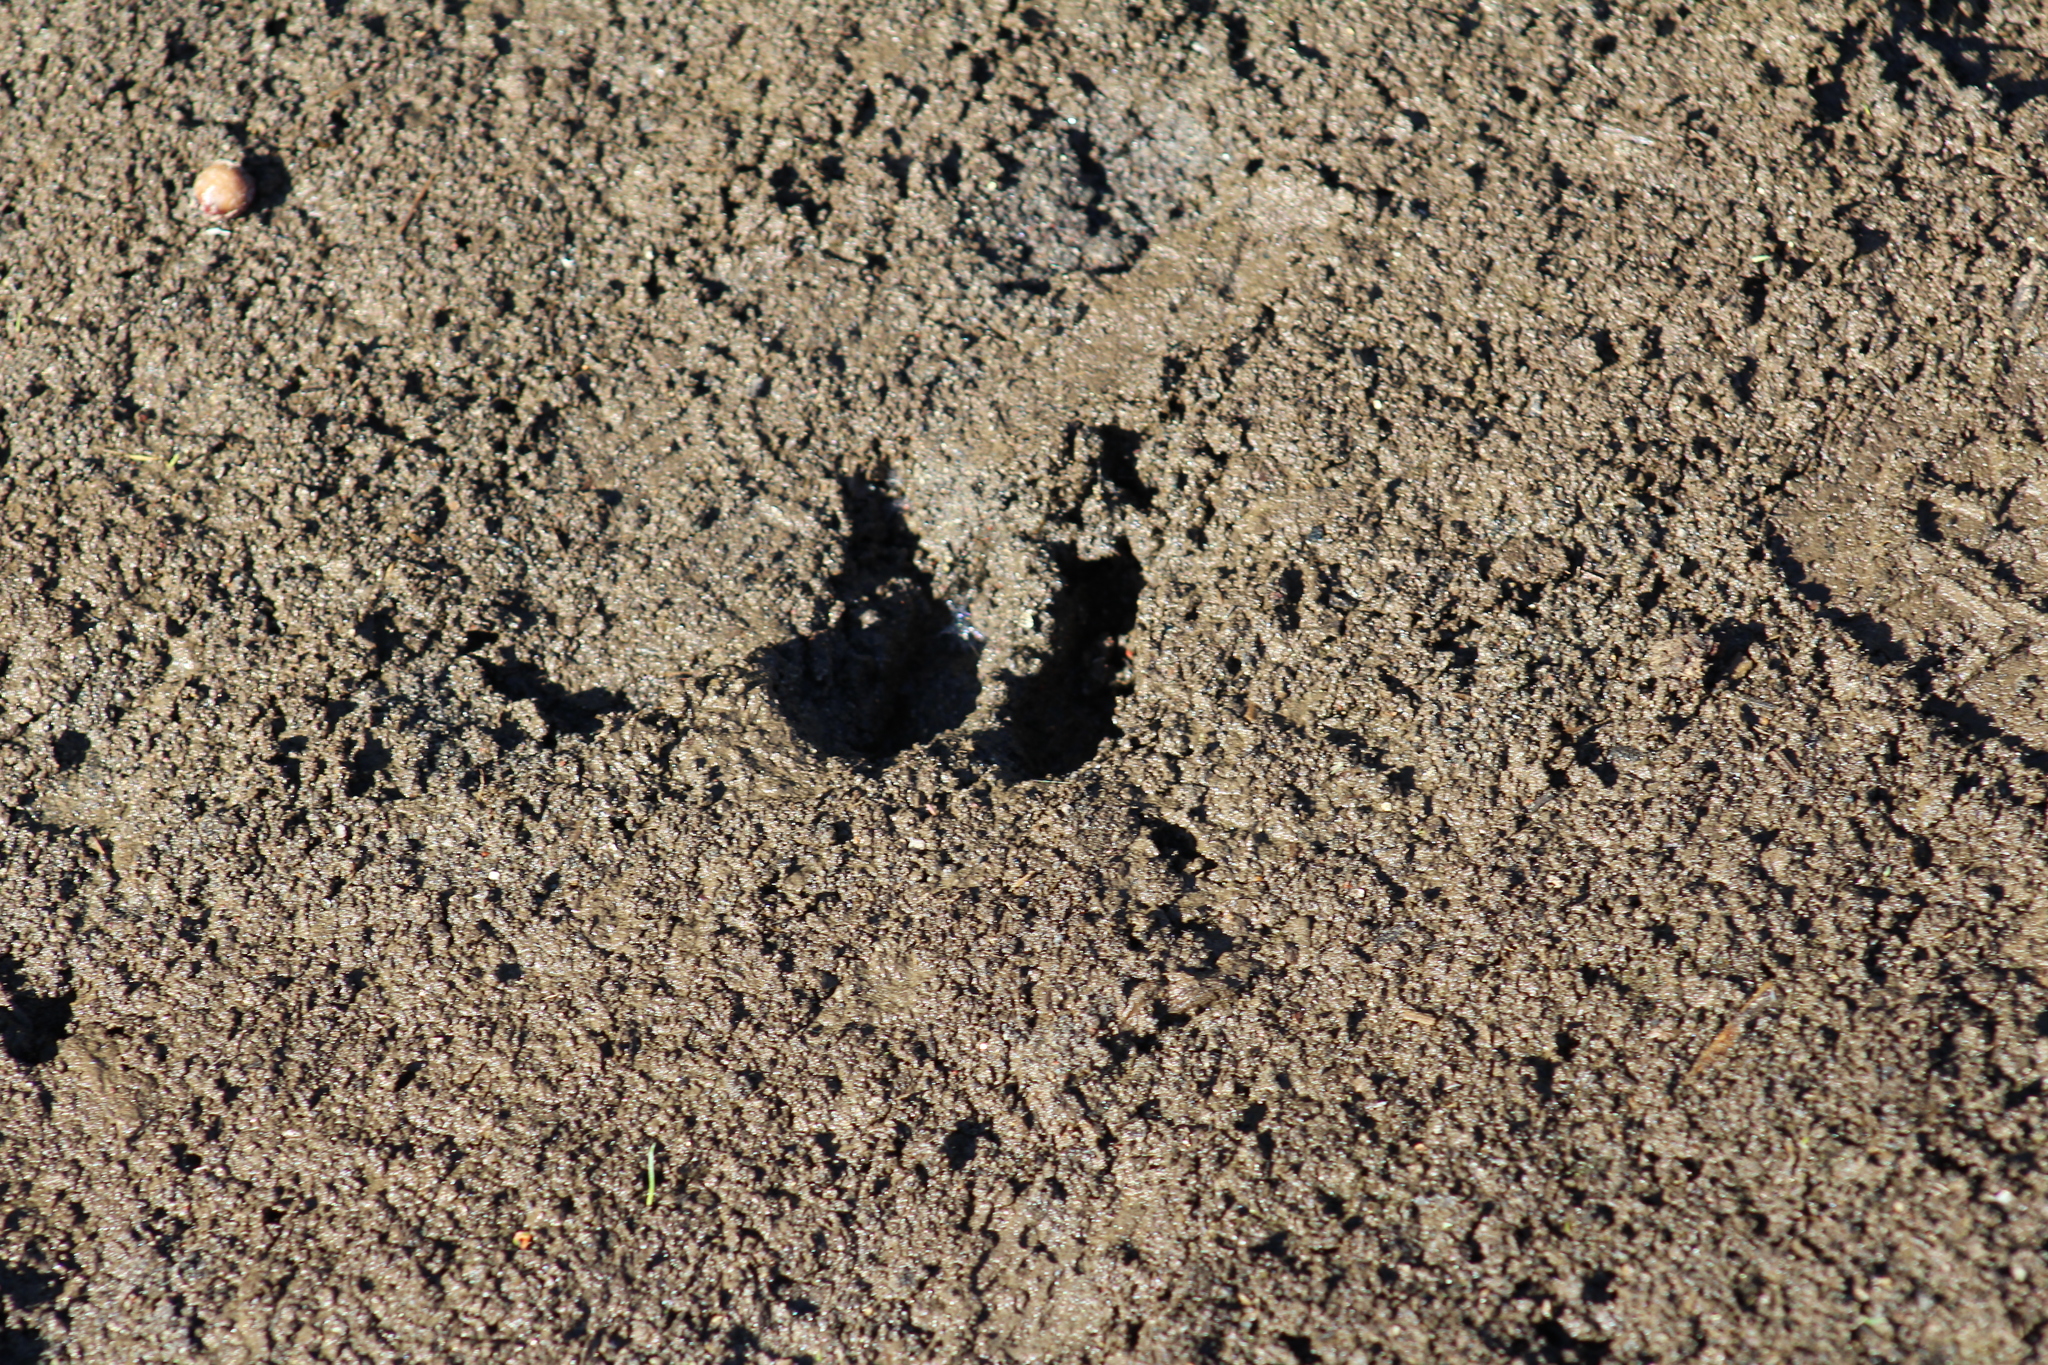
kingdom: Animalia
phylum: Chordata
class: Mammalia
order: Artiodactyla
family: Cervidae
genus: Odocoileus
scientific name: Odocoileus hemionus
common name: Mule deer
